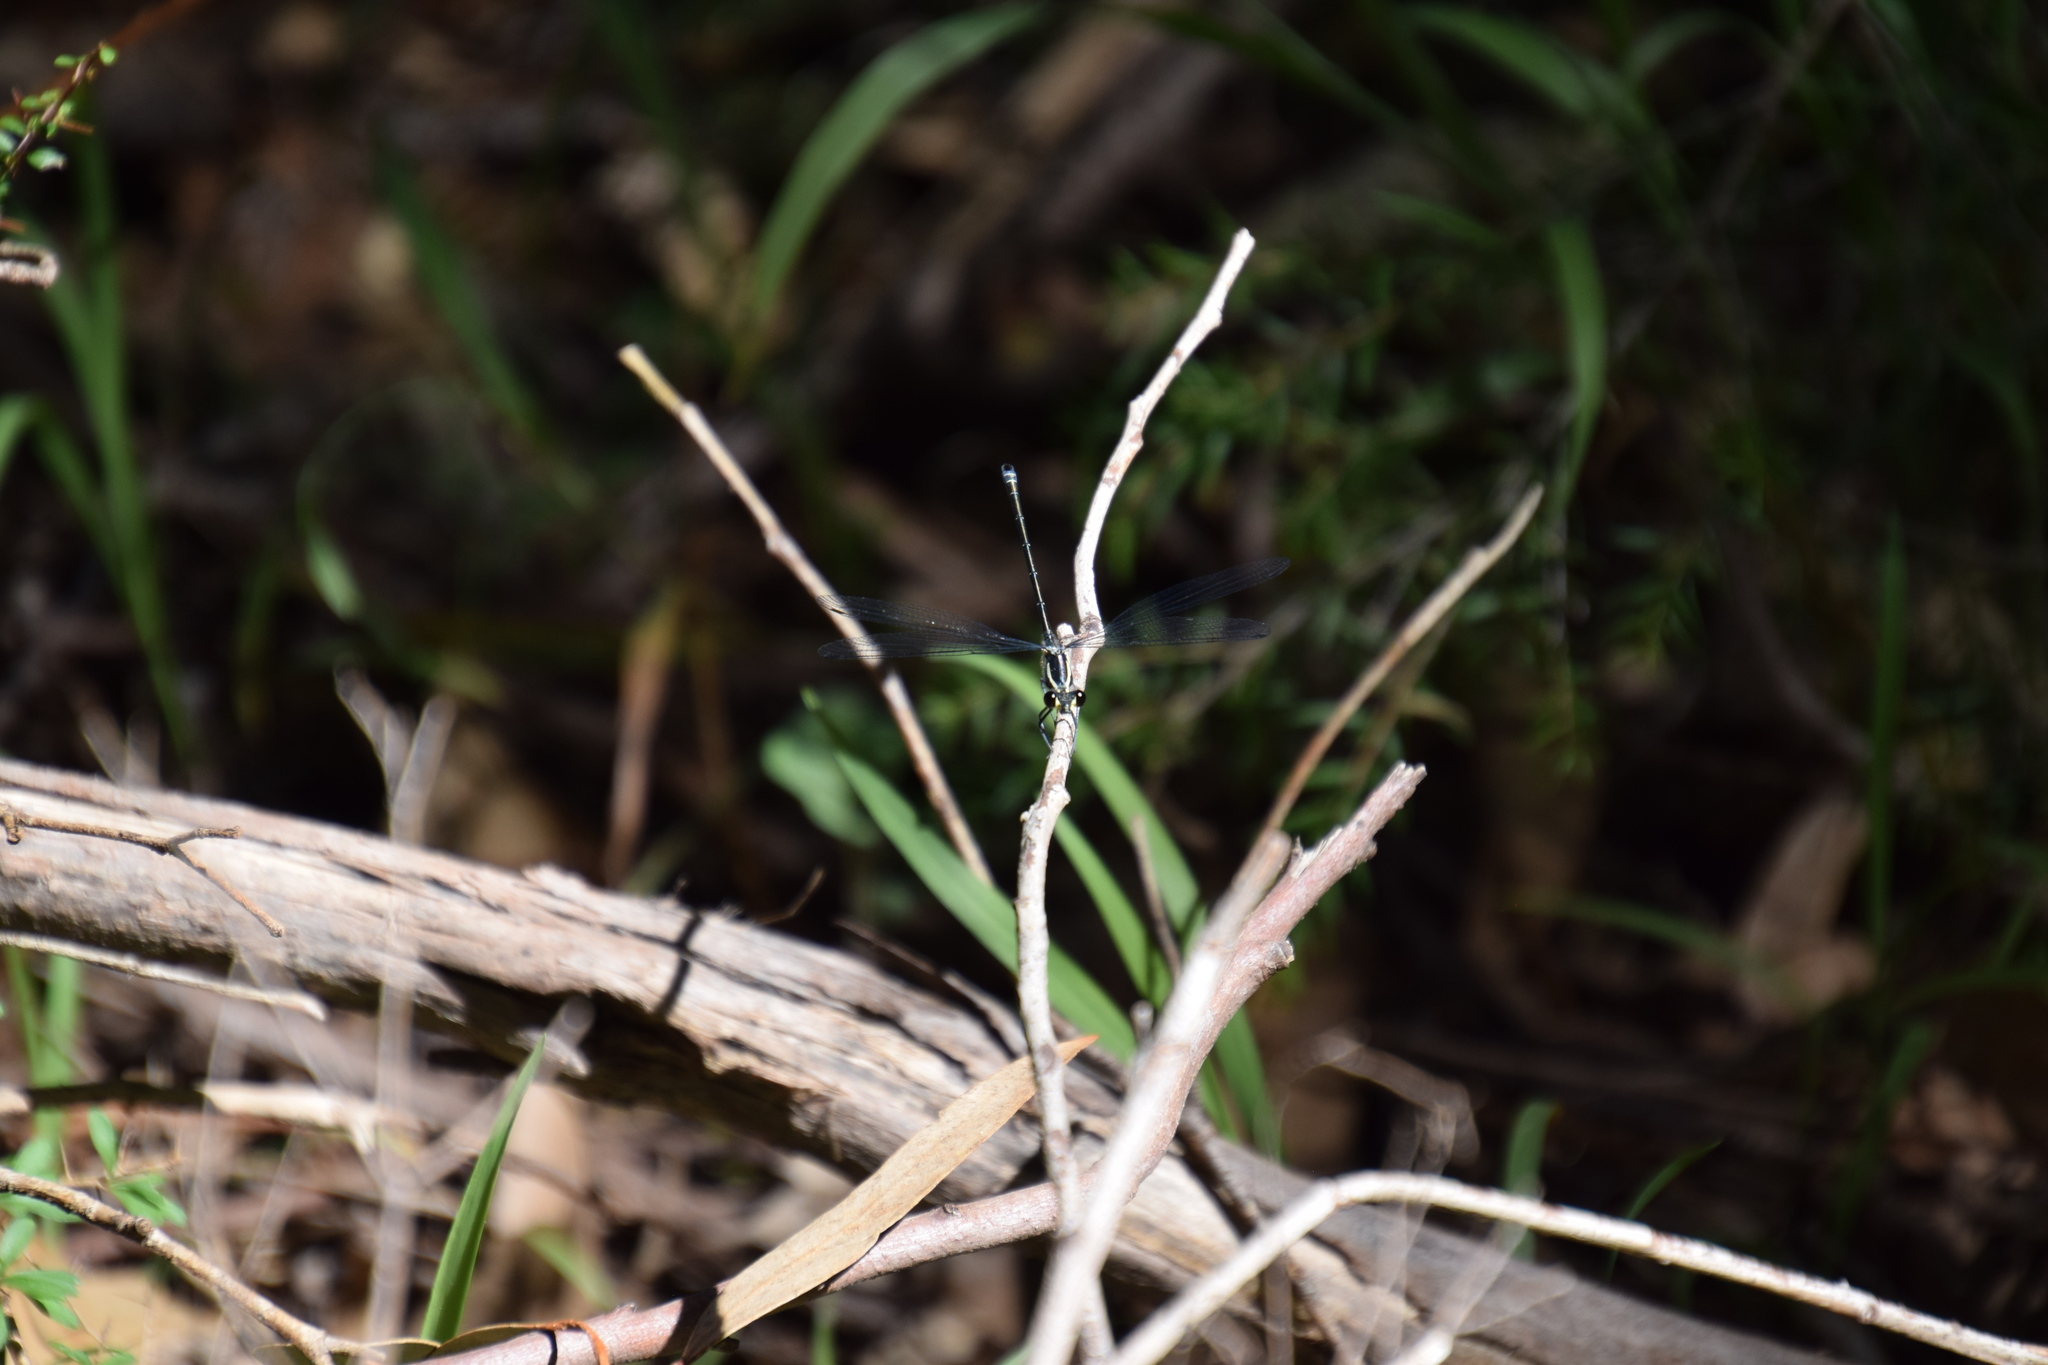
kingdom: Animalia
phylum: Arthropoda
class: Insecta
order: Odonata
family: Argiolestidae
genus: Austroargiolestes
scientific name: Austroargiolestes icteromelas
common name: Common flatwing
